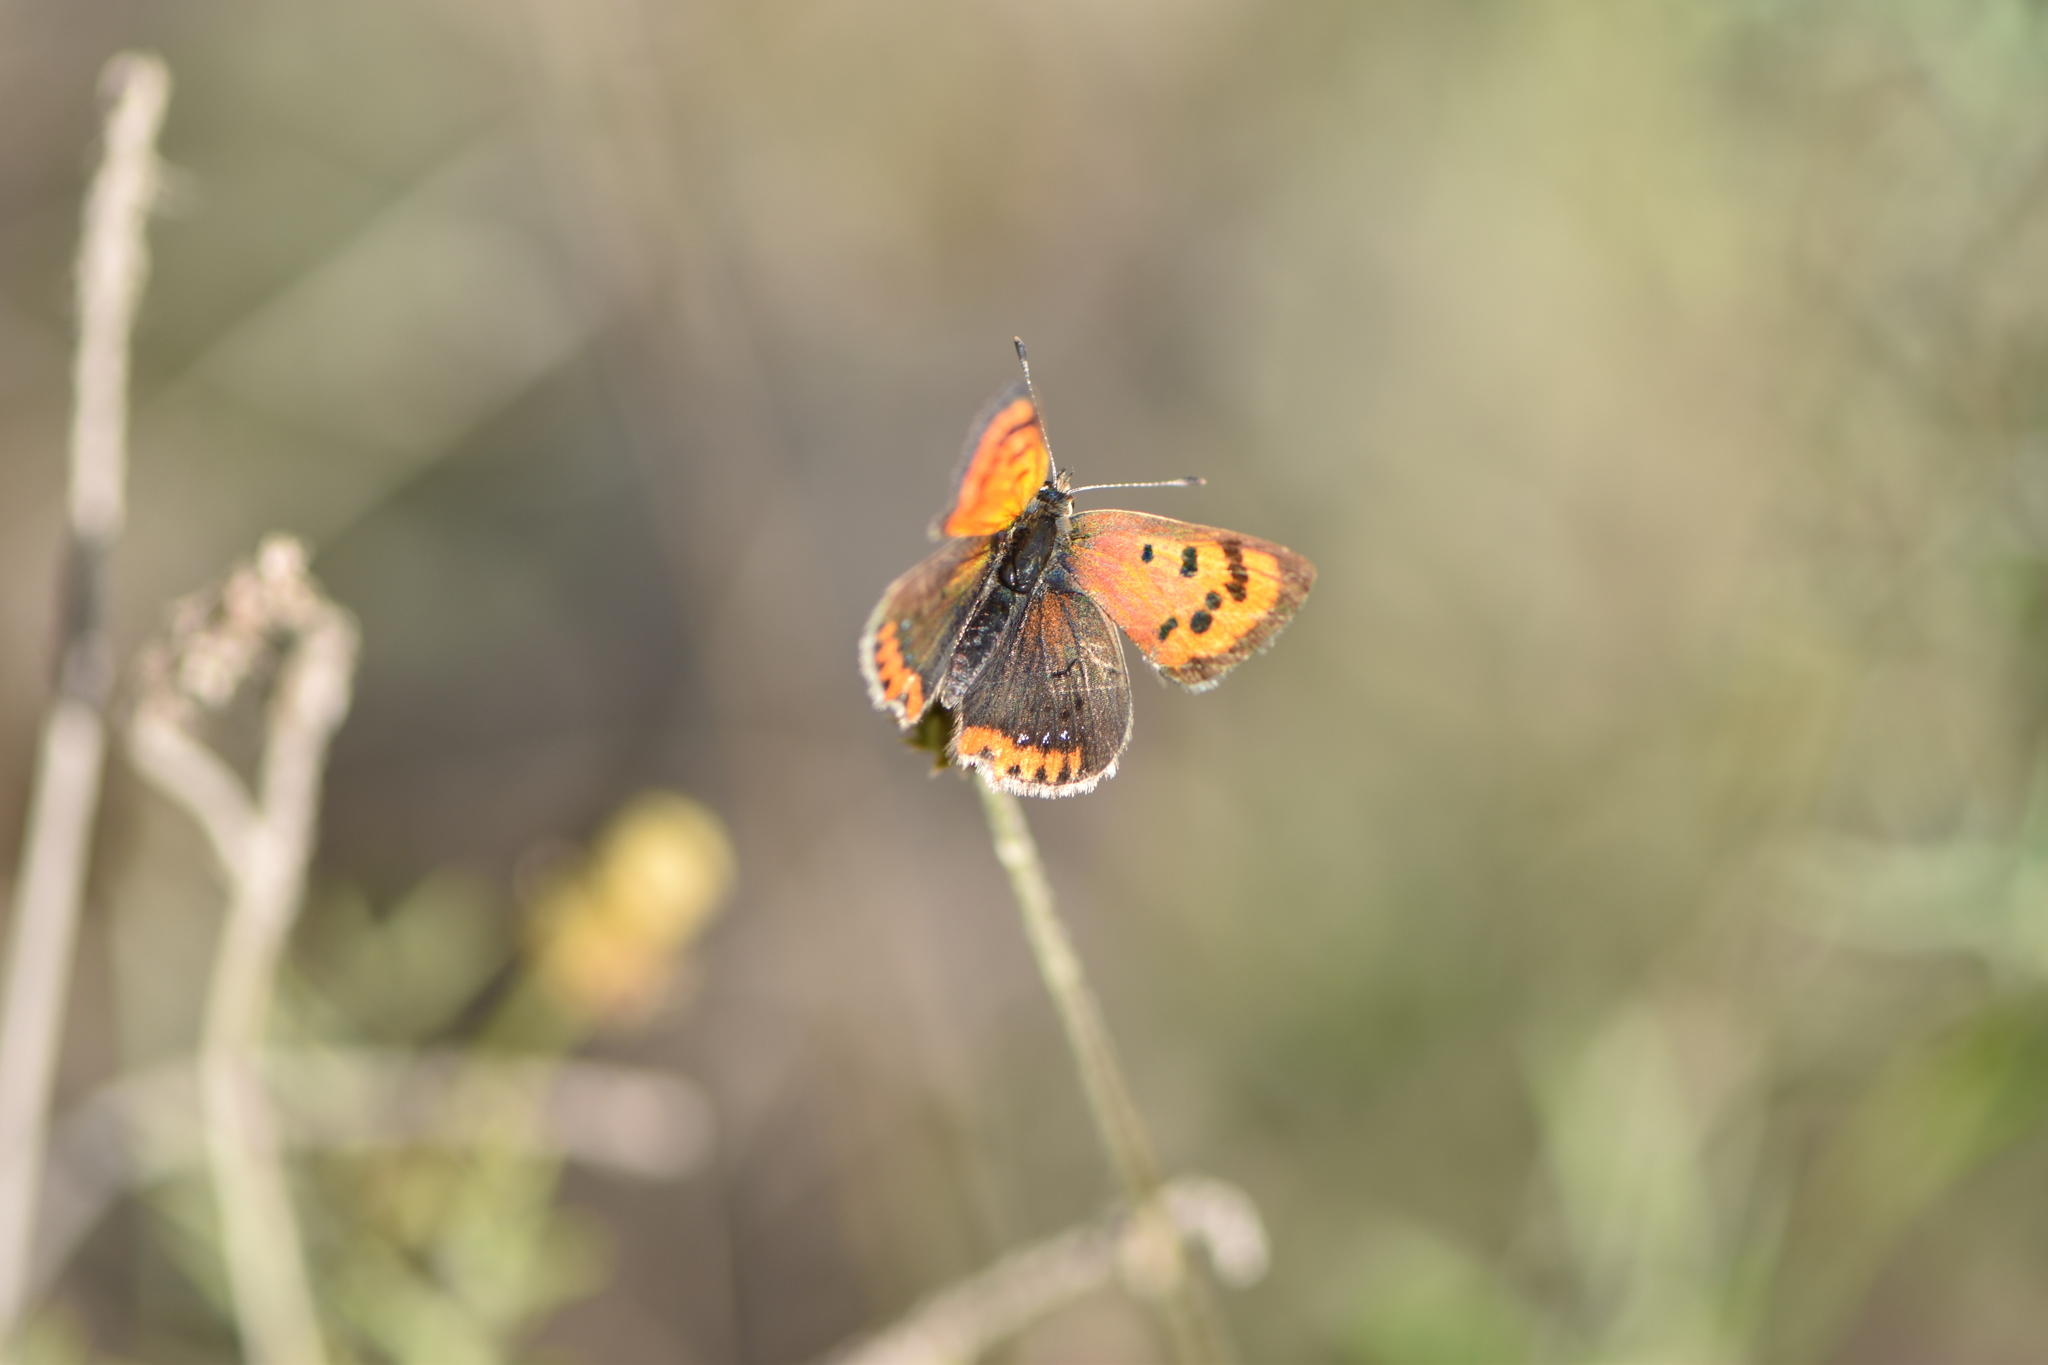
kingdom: Animalia
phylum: Arthropoda
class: Insecta
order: Lepidoptera
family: Lycaenidae
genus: Lycaena
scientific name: Lycaena phlaeas
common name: Small copper
